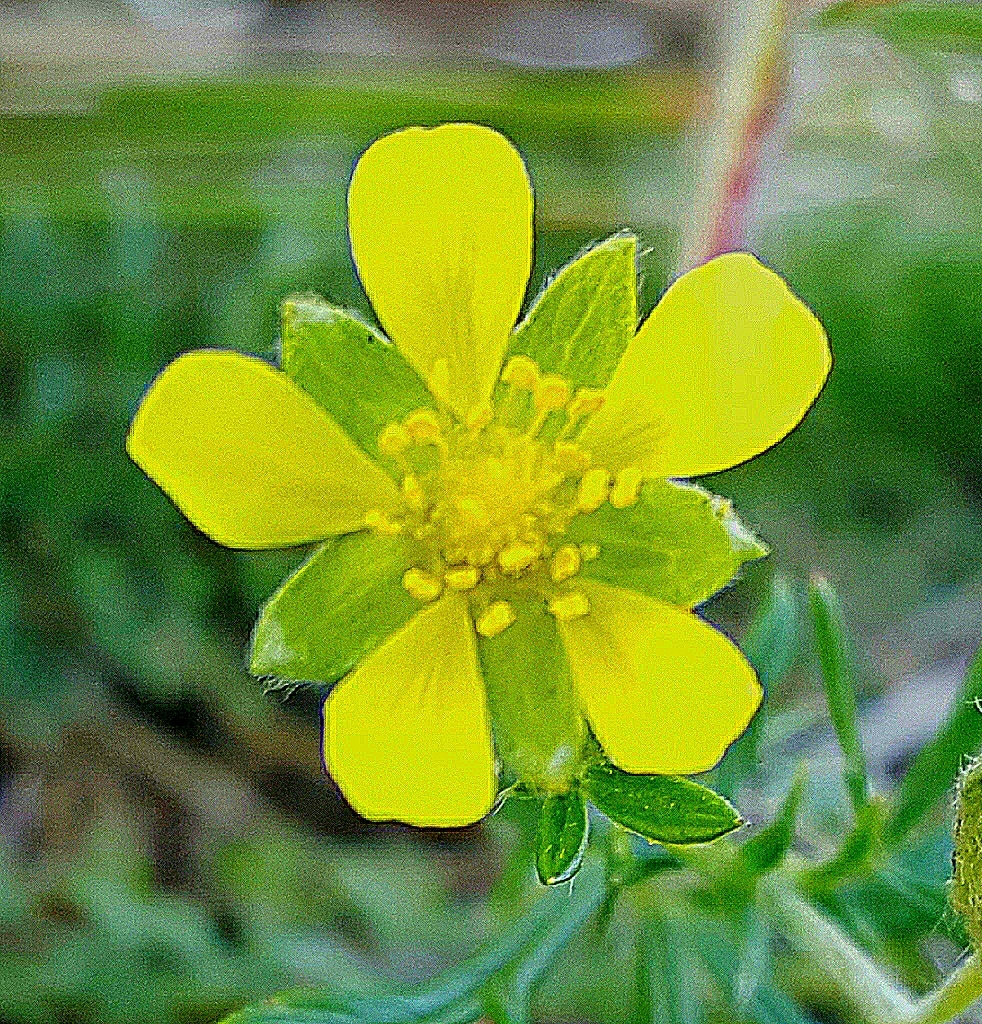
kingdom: Plantae
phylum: Tracheophyta
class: Magnoliopsida
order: Rosales
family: Rosaceae
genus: Potentilla
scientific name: Potentilla argentea
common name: Hoary cinquefoil
